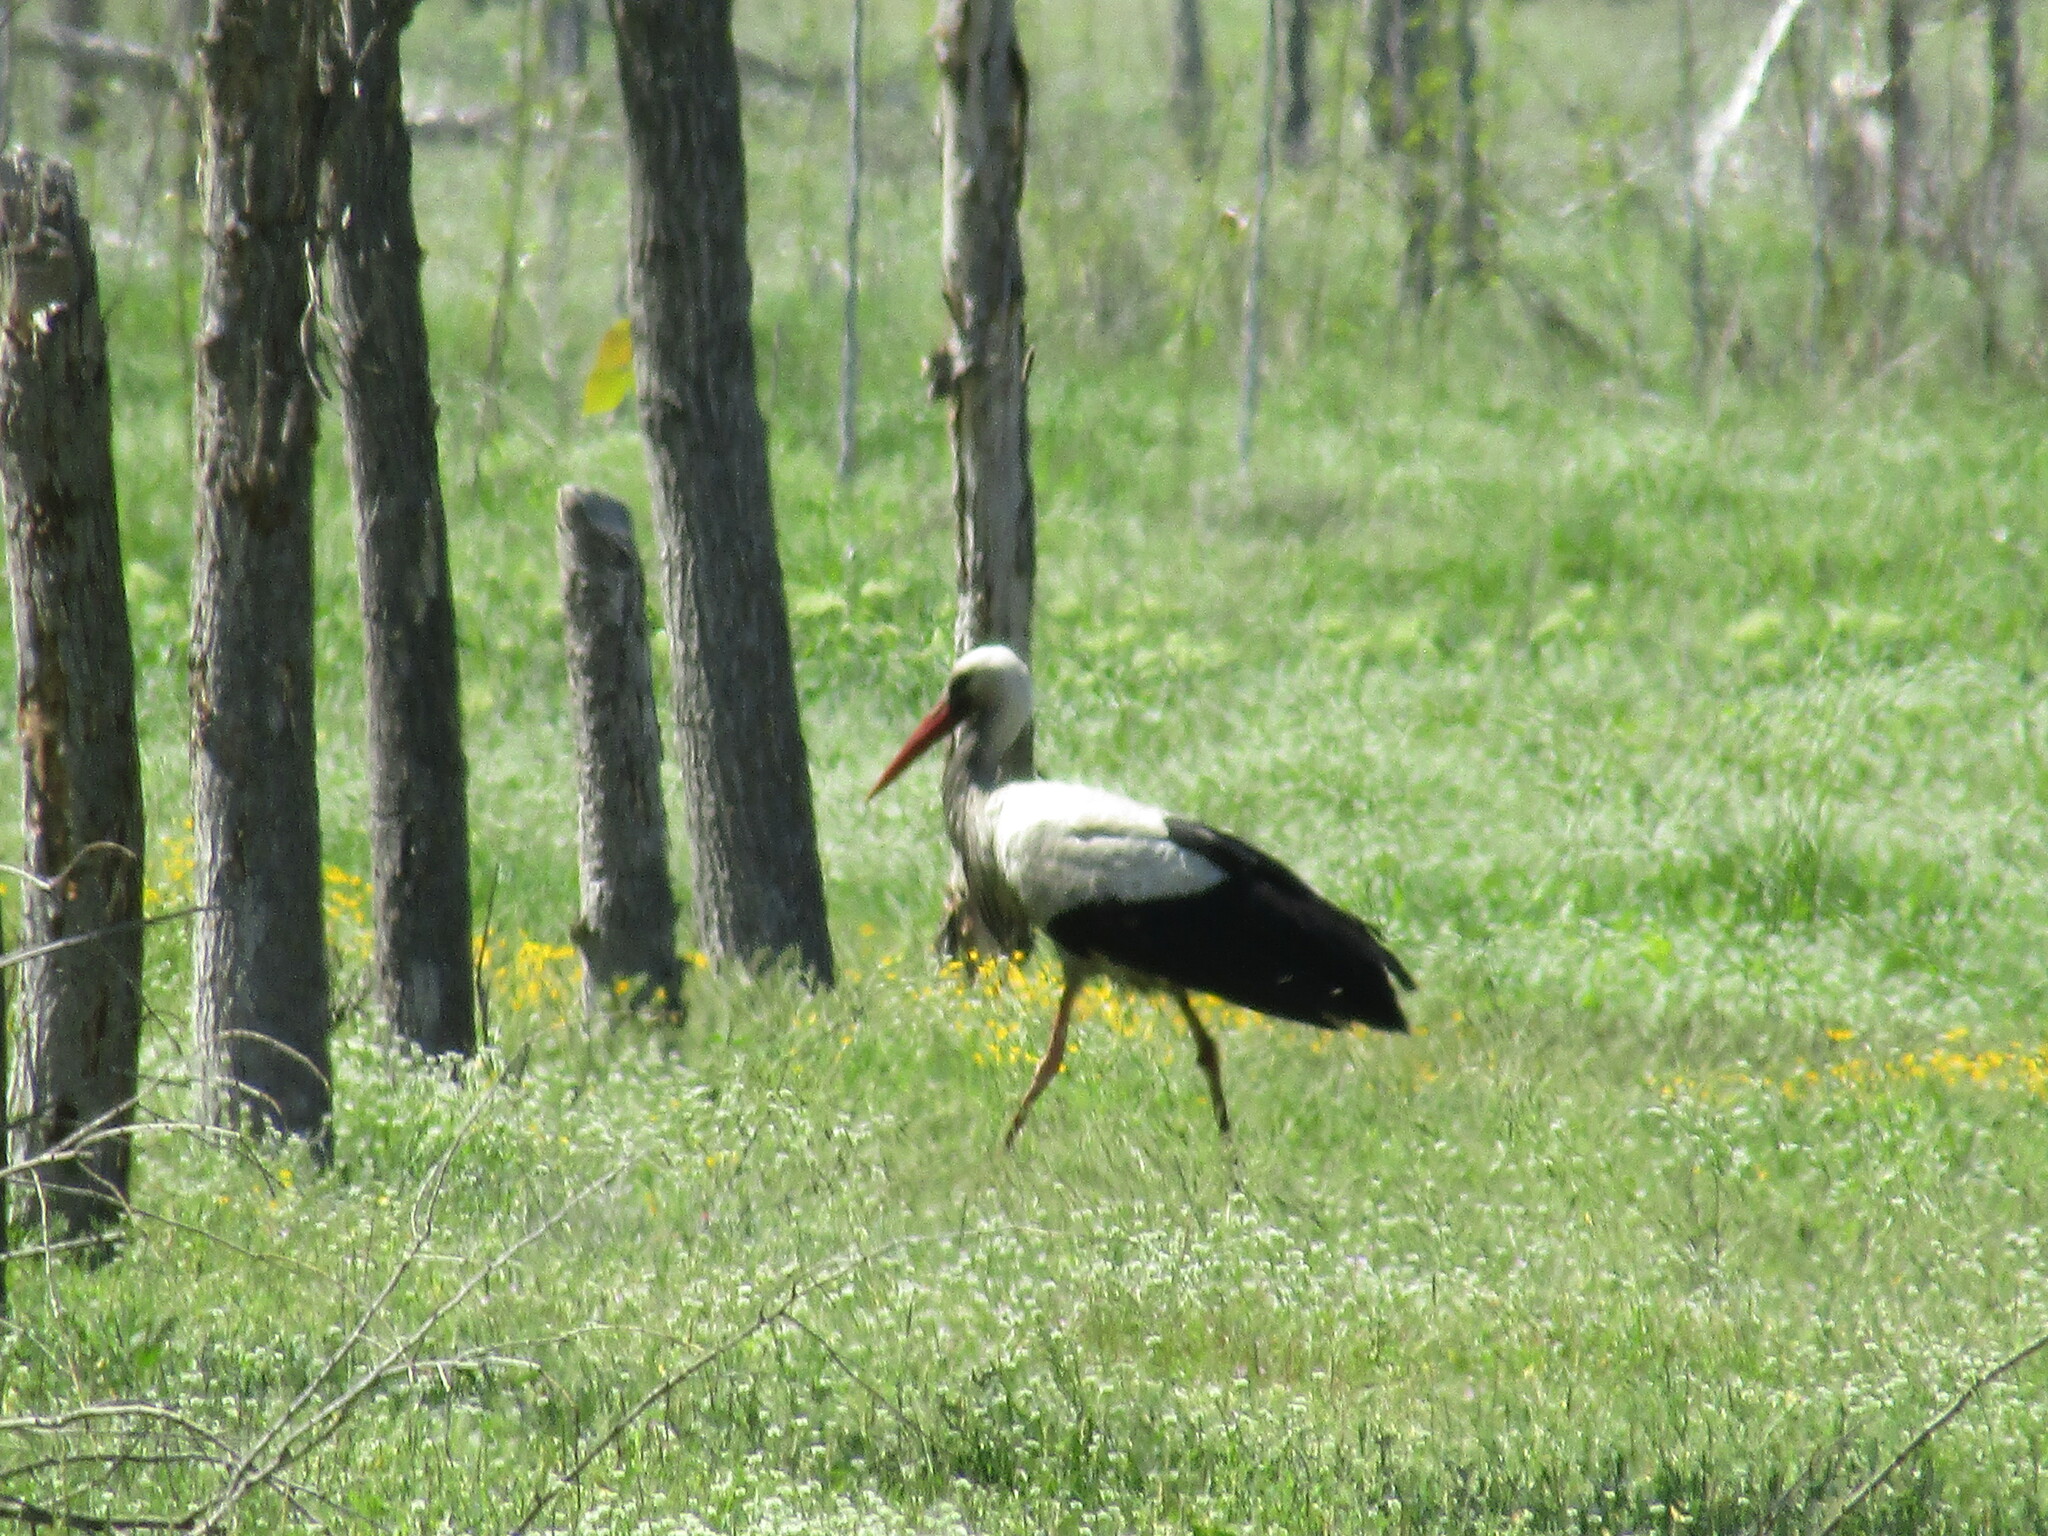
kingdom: Animalia
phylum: Chordata
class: Aves
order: Ciconiiformes
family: Ciconiidae
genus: Ciconia
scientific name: Ciconia ciconia
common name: White stork
